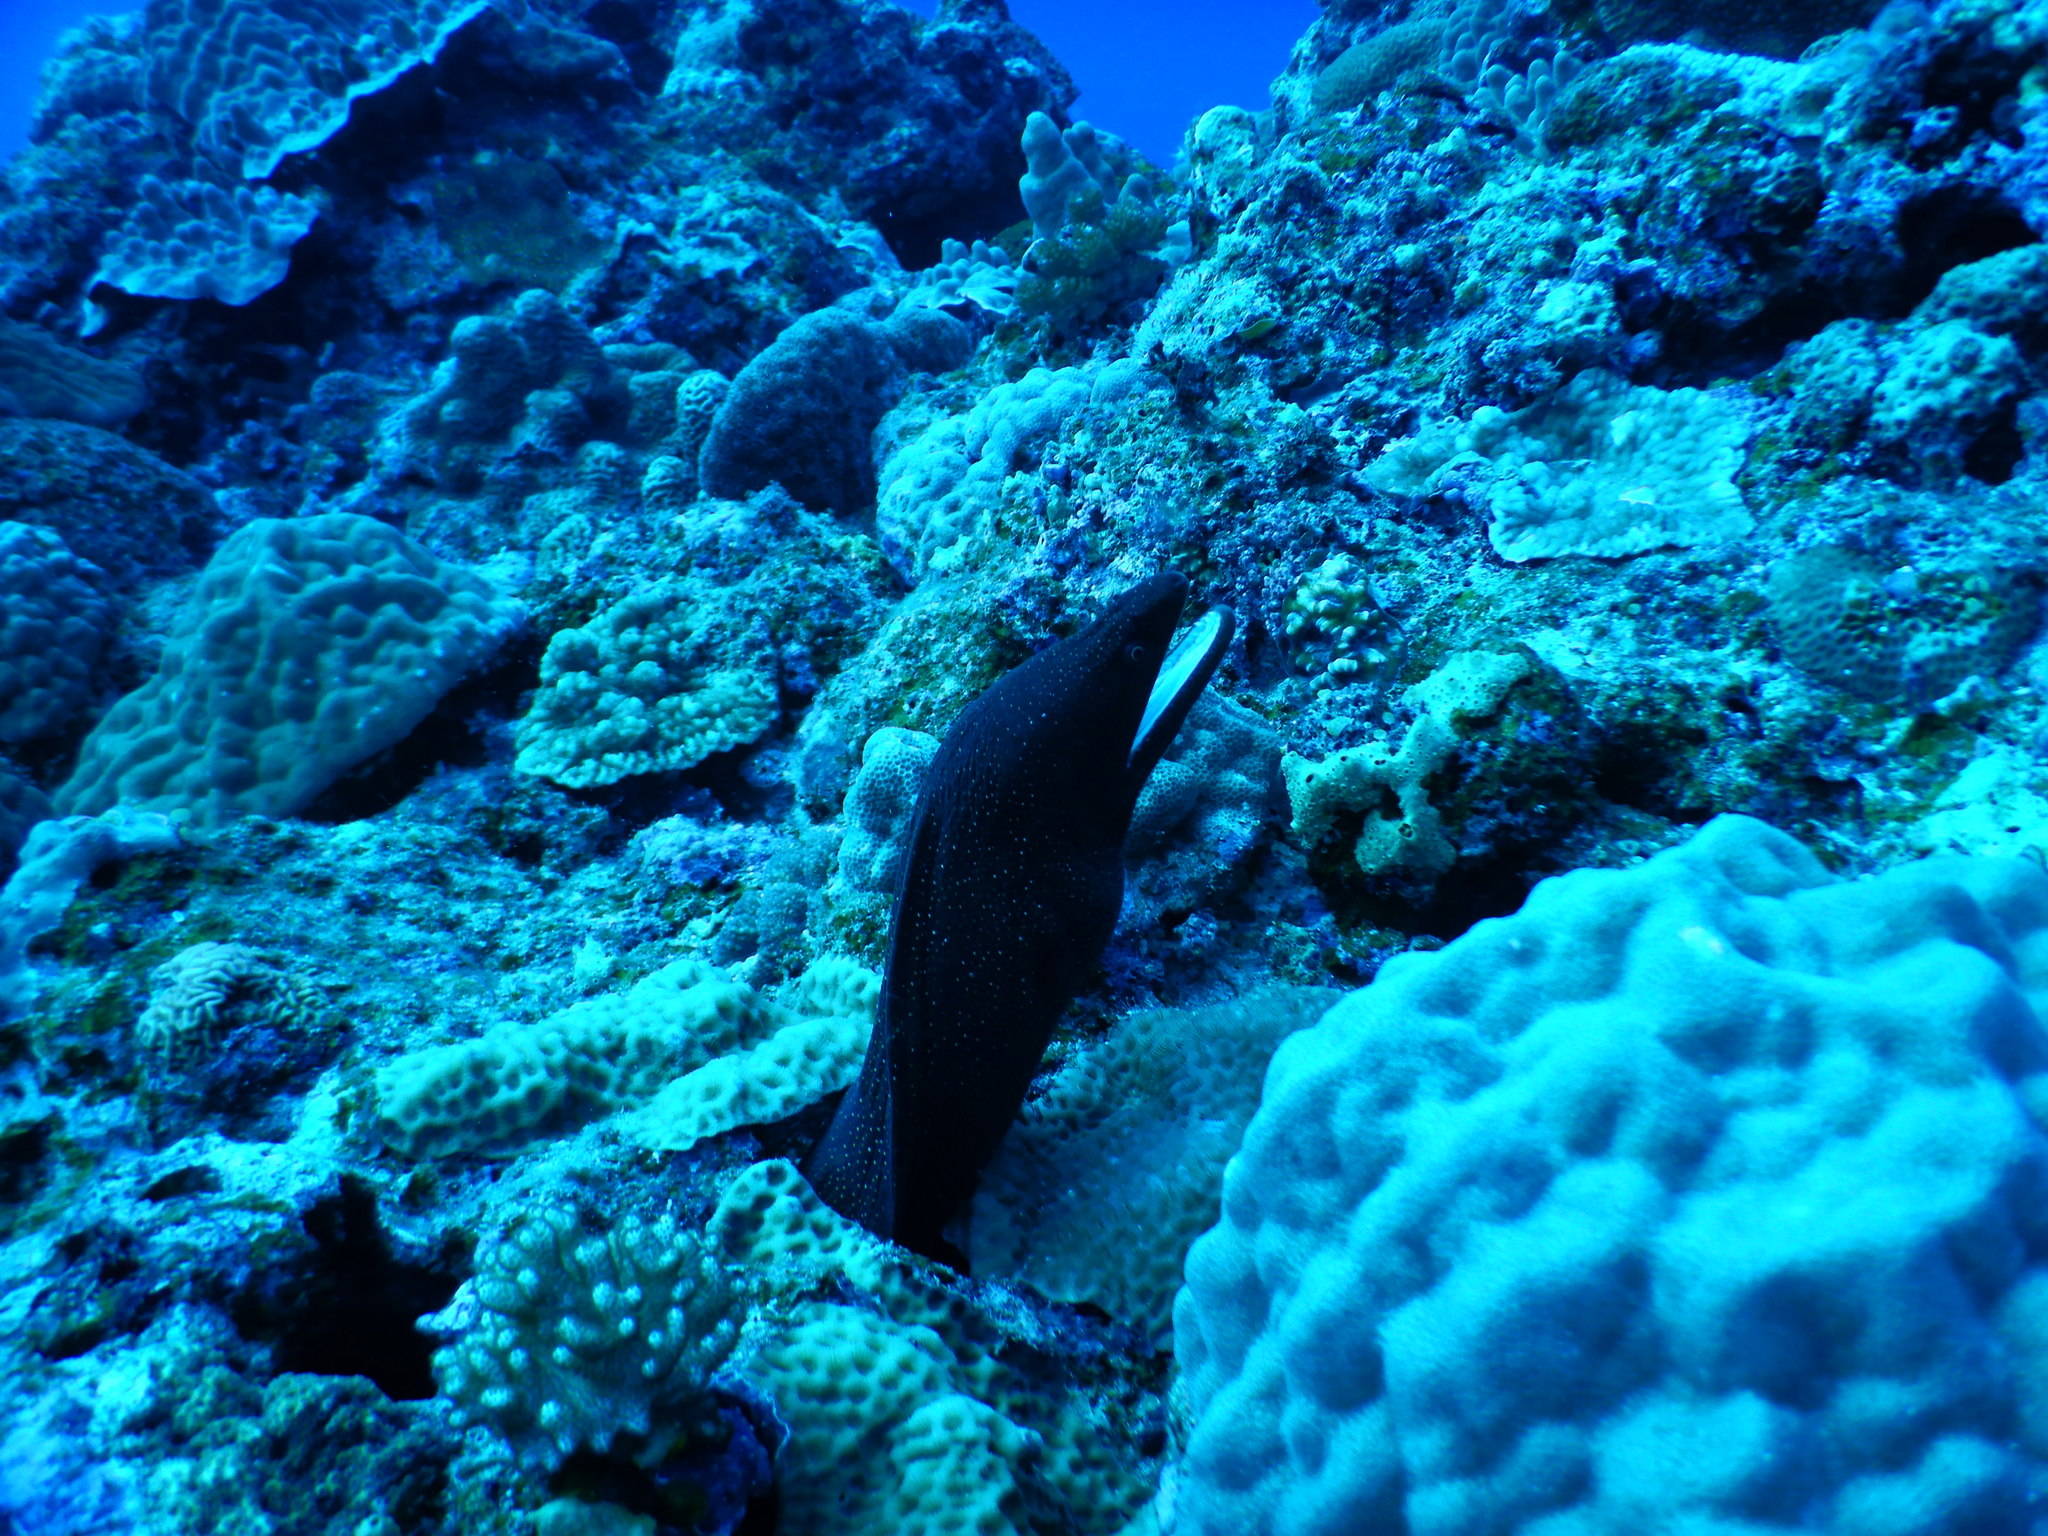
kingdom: Animalia
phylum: Chordata
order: Anguilliformes
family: Muraenidae
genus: Gymnothorax
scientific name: Gymnothorax meleagris
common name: Guineafowl moray
